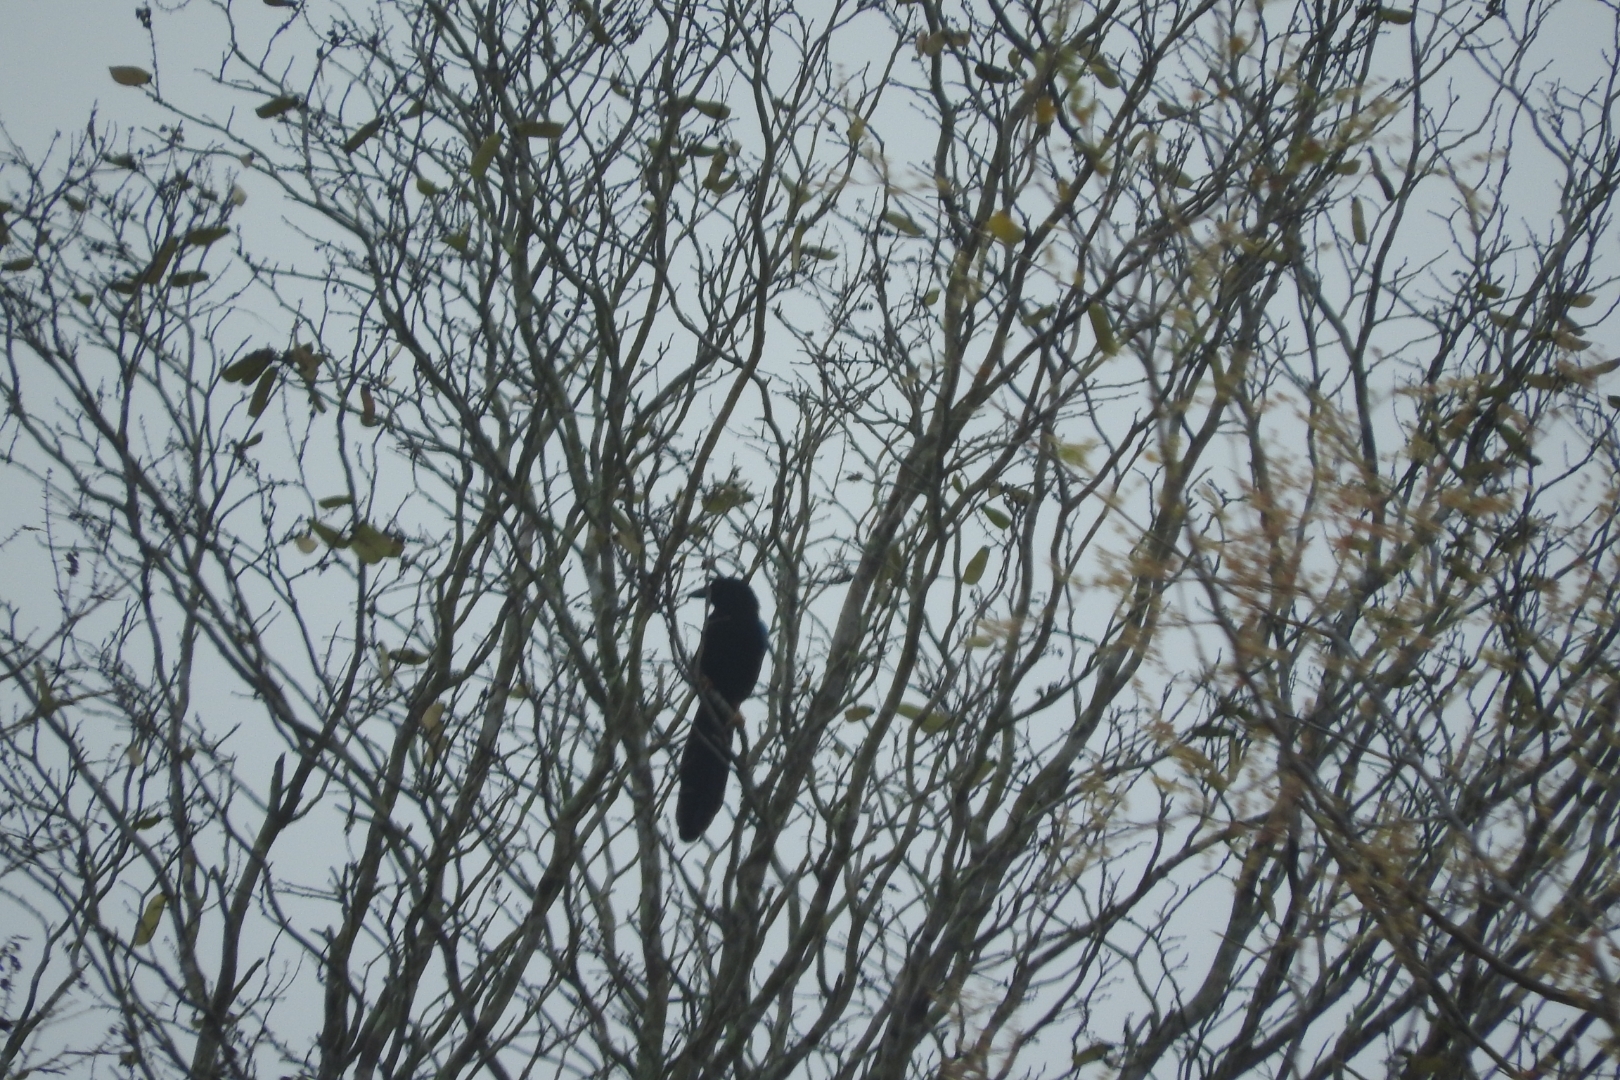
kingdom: Animalia
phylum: Chordata
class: Aves
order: Passeriformes
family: Corvidae
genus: Cyanocorax
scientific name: Cyanocorax yucatanicus
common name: Yucatan jay
